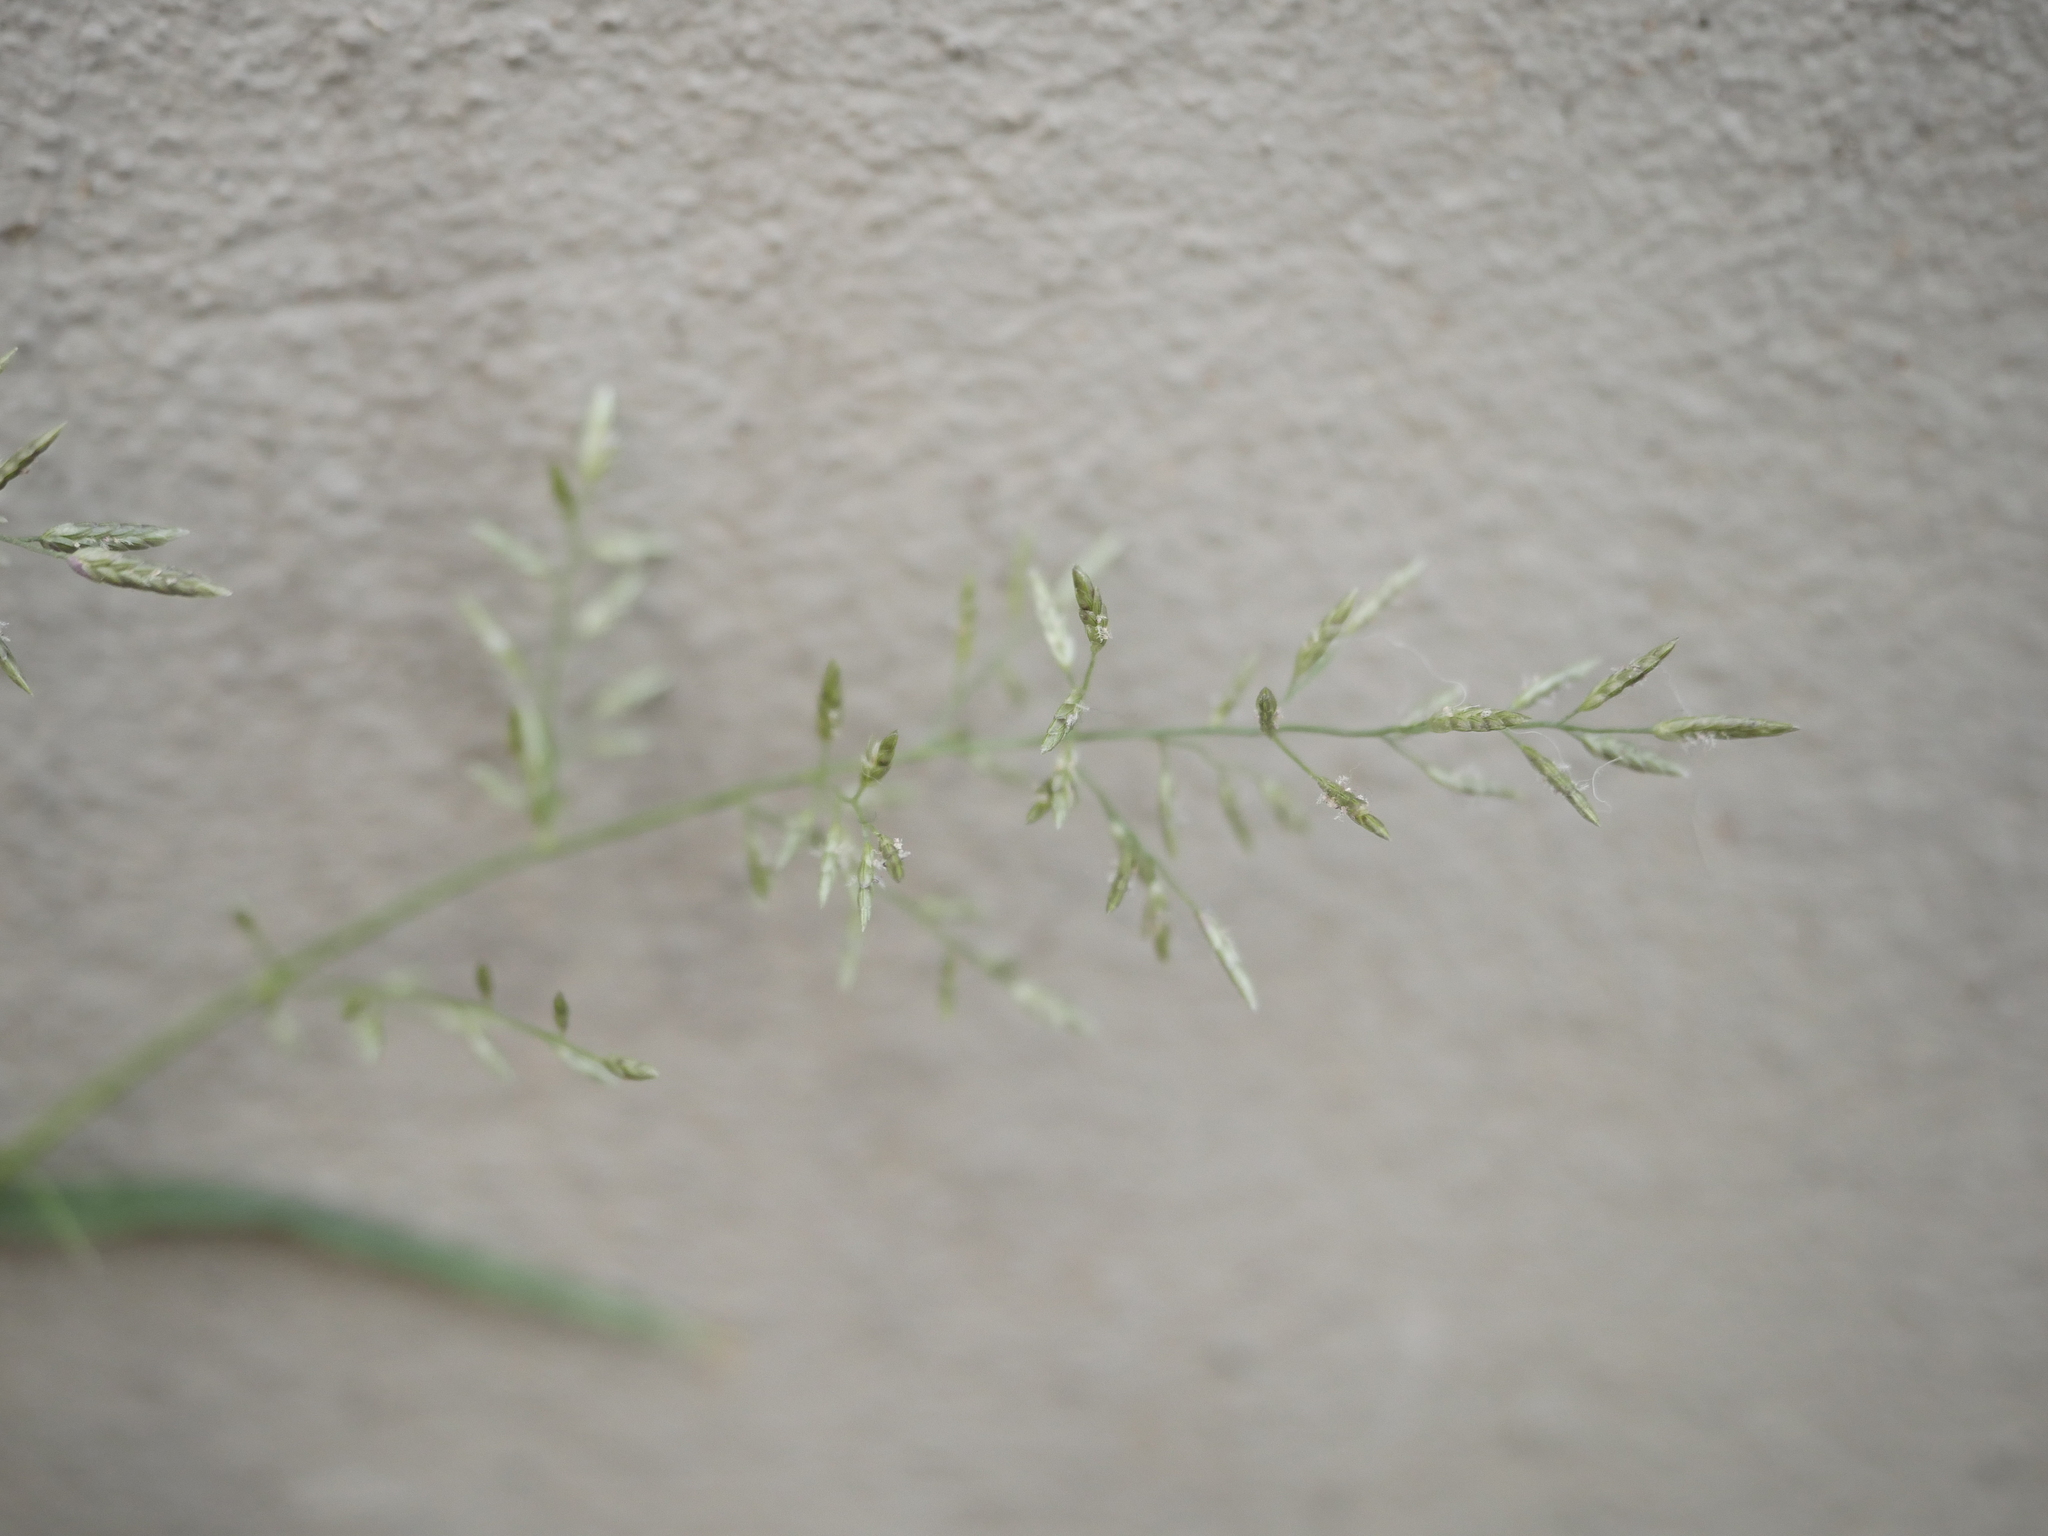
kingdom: Plantae
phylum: Tracheophyta
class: Liliopsida
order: Poales
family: Poaceae
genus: Eragrostis
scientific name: Eragrostis minor
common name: Small love-grass
